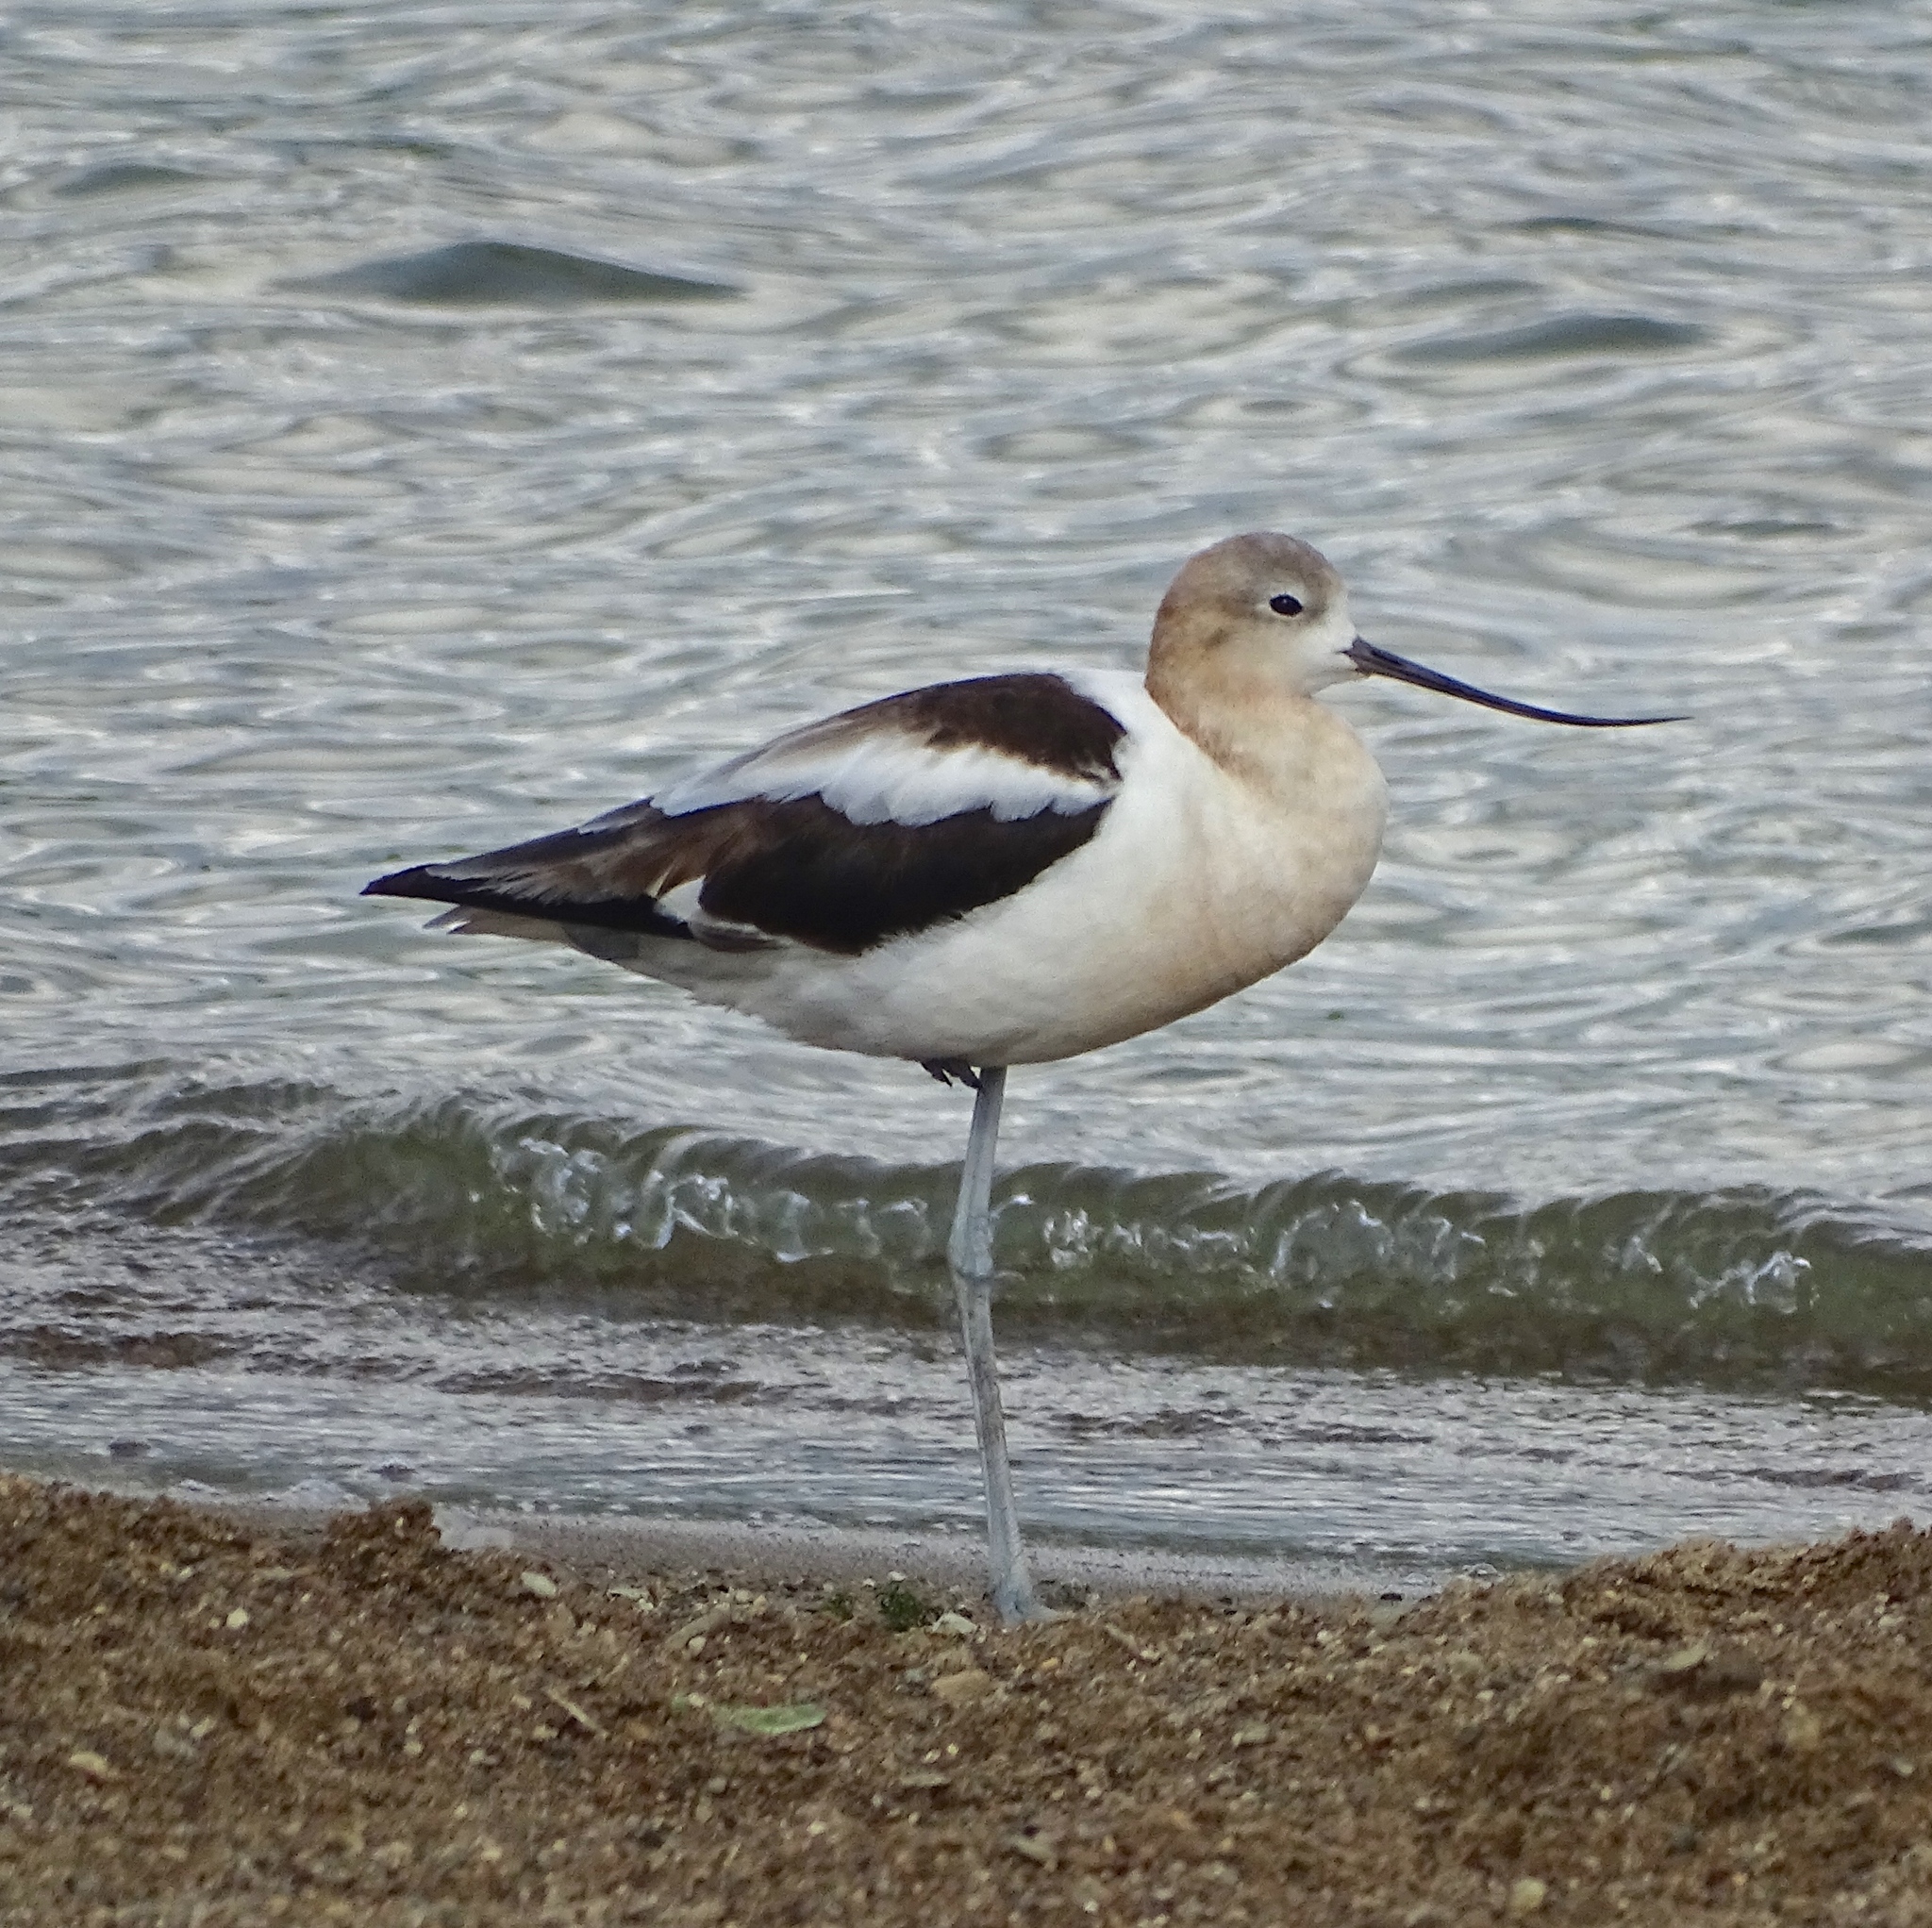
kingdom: Animalia
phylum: Chordata
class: Aves
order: Charadriiformes
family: Recurvirostridae
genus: Recurvirostra
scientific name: Recurvirostra americana
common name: American avocet
